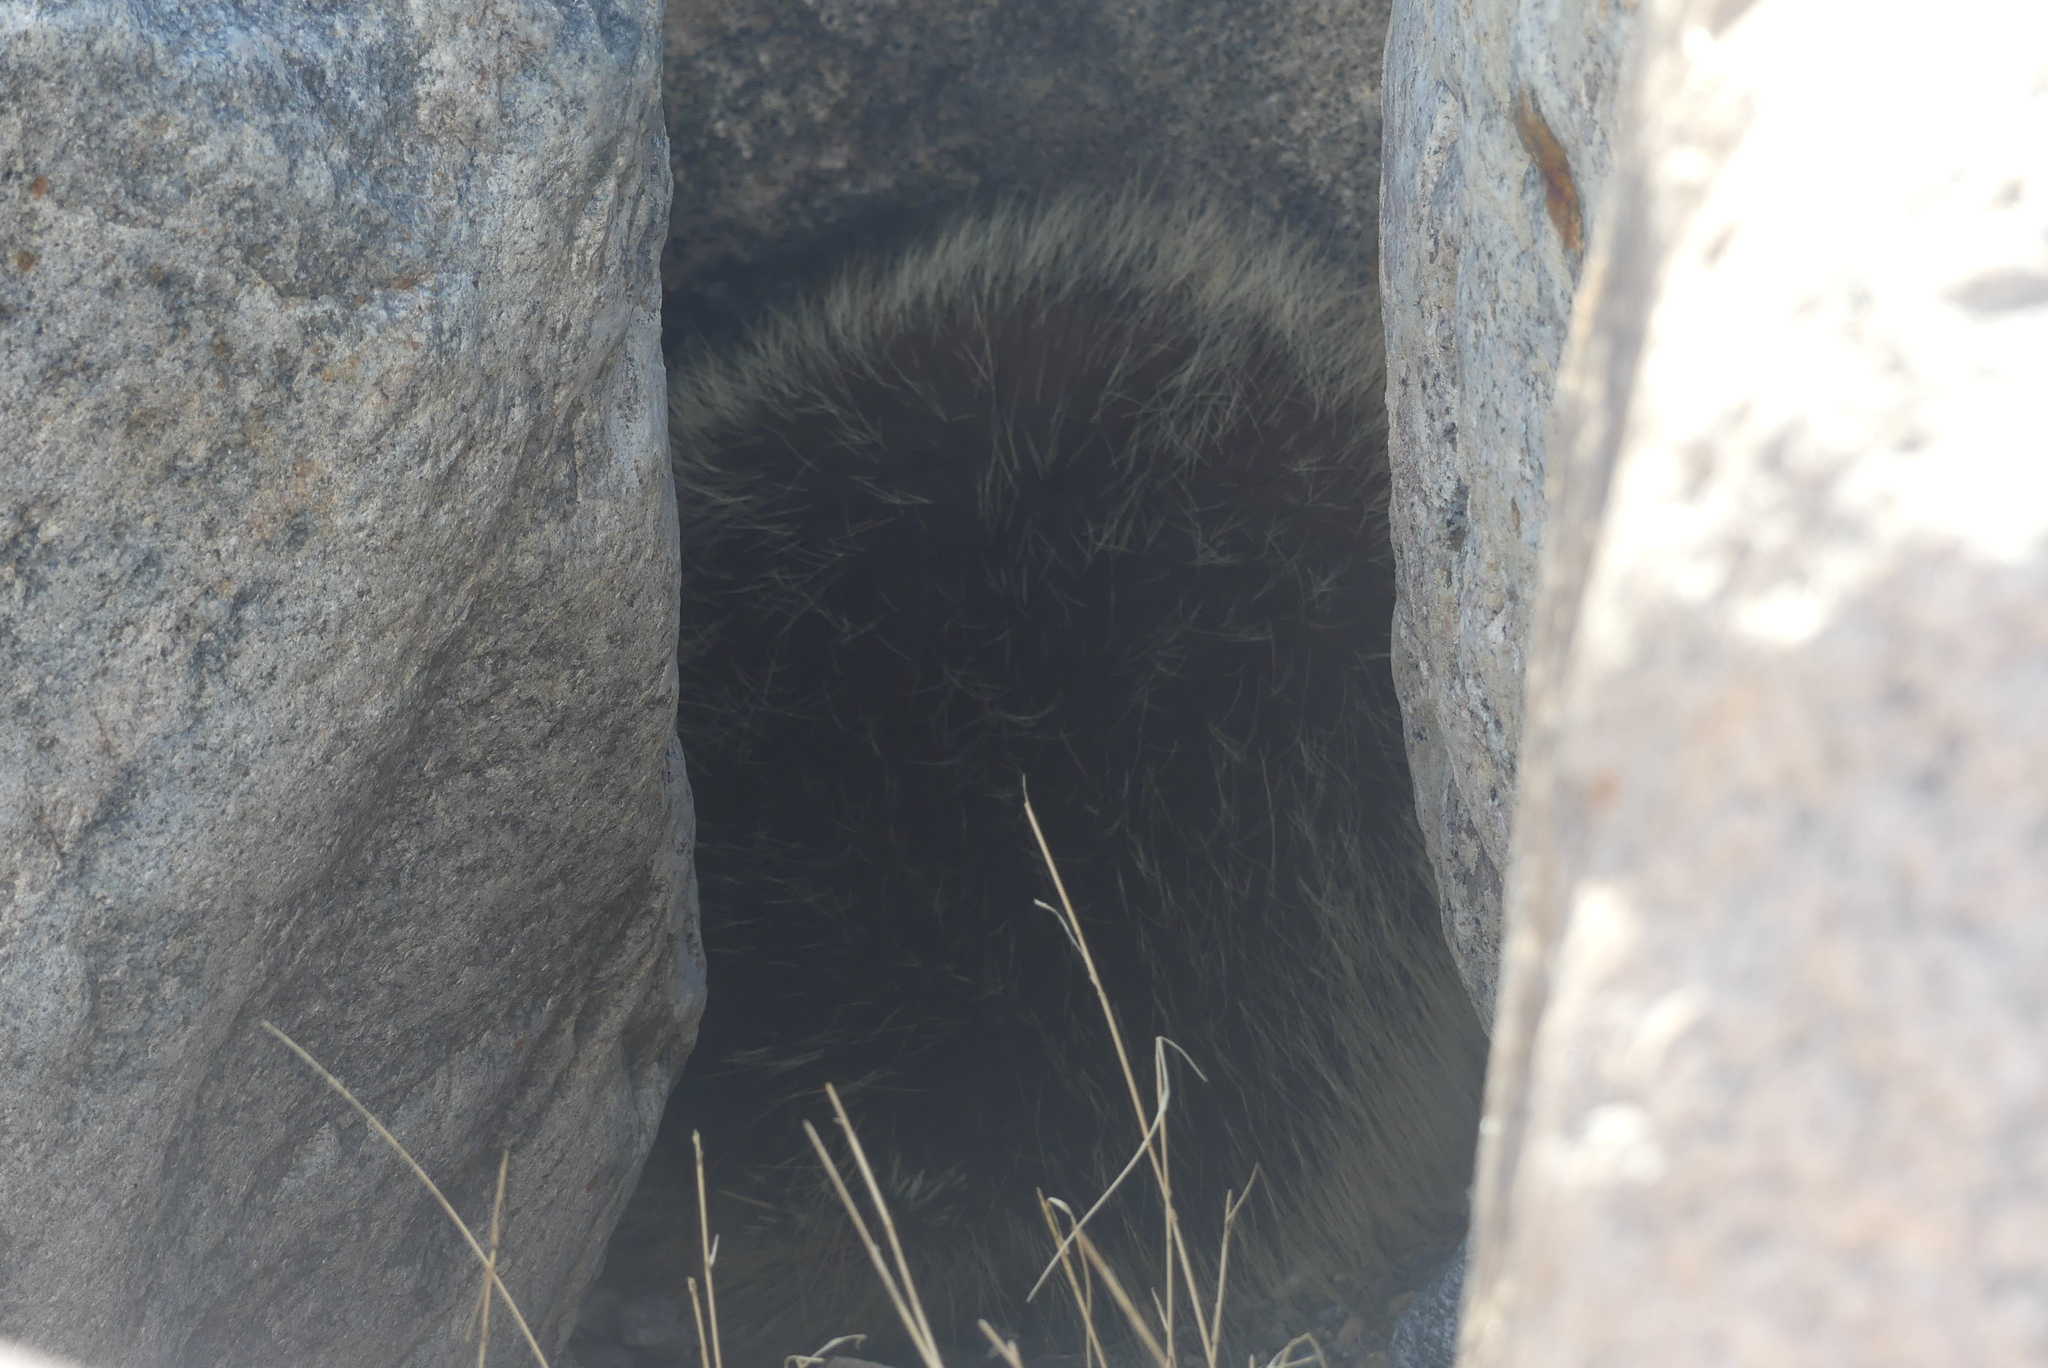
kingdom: Animalia
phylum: Chordata
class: Mammalia
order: Rodentia
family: Erethizontidae
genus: Erethizon
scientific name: Erethizon dorsatus
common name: North american porcupine
